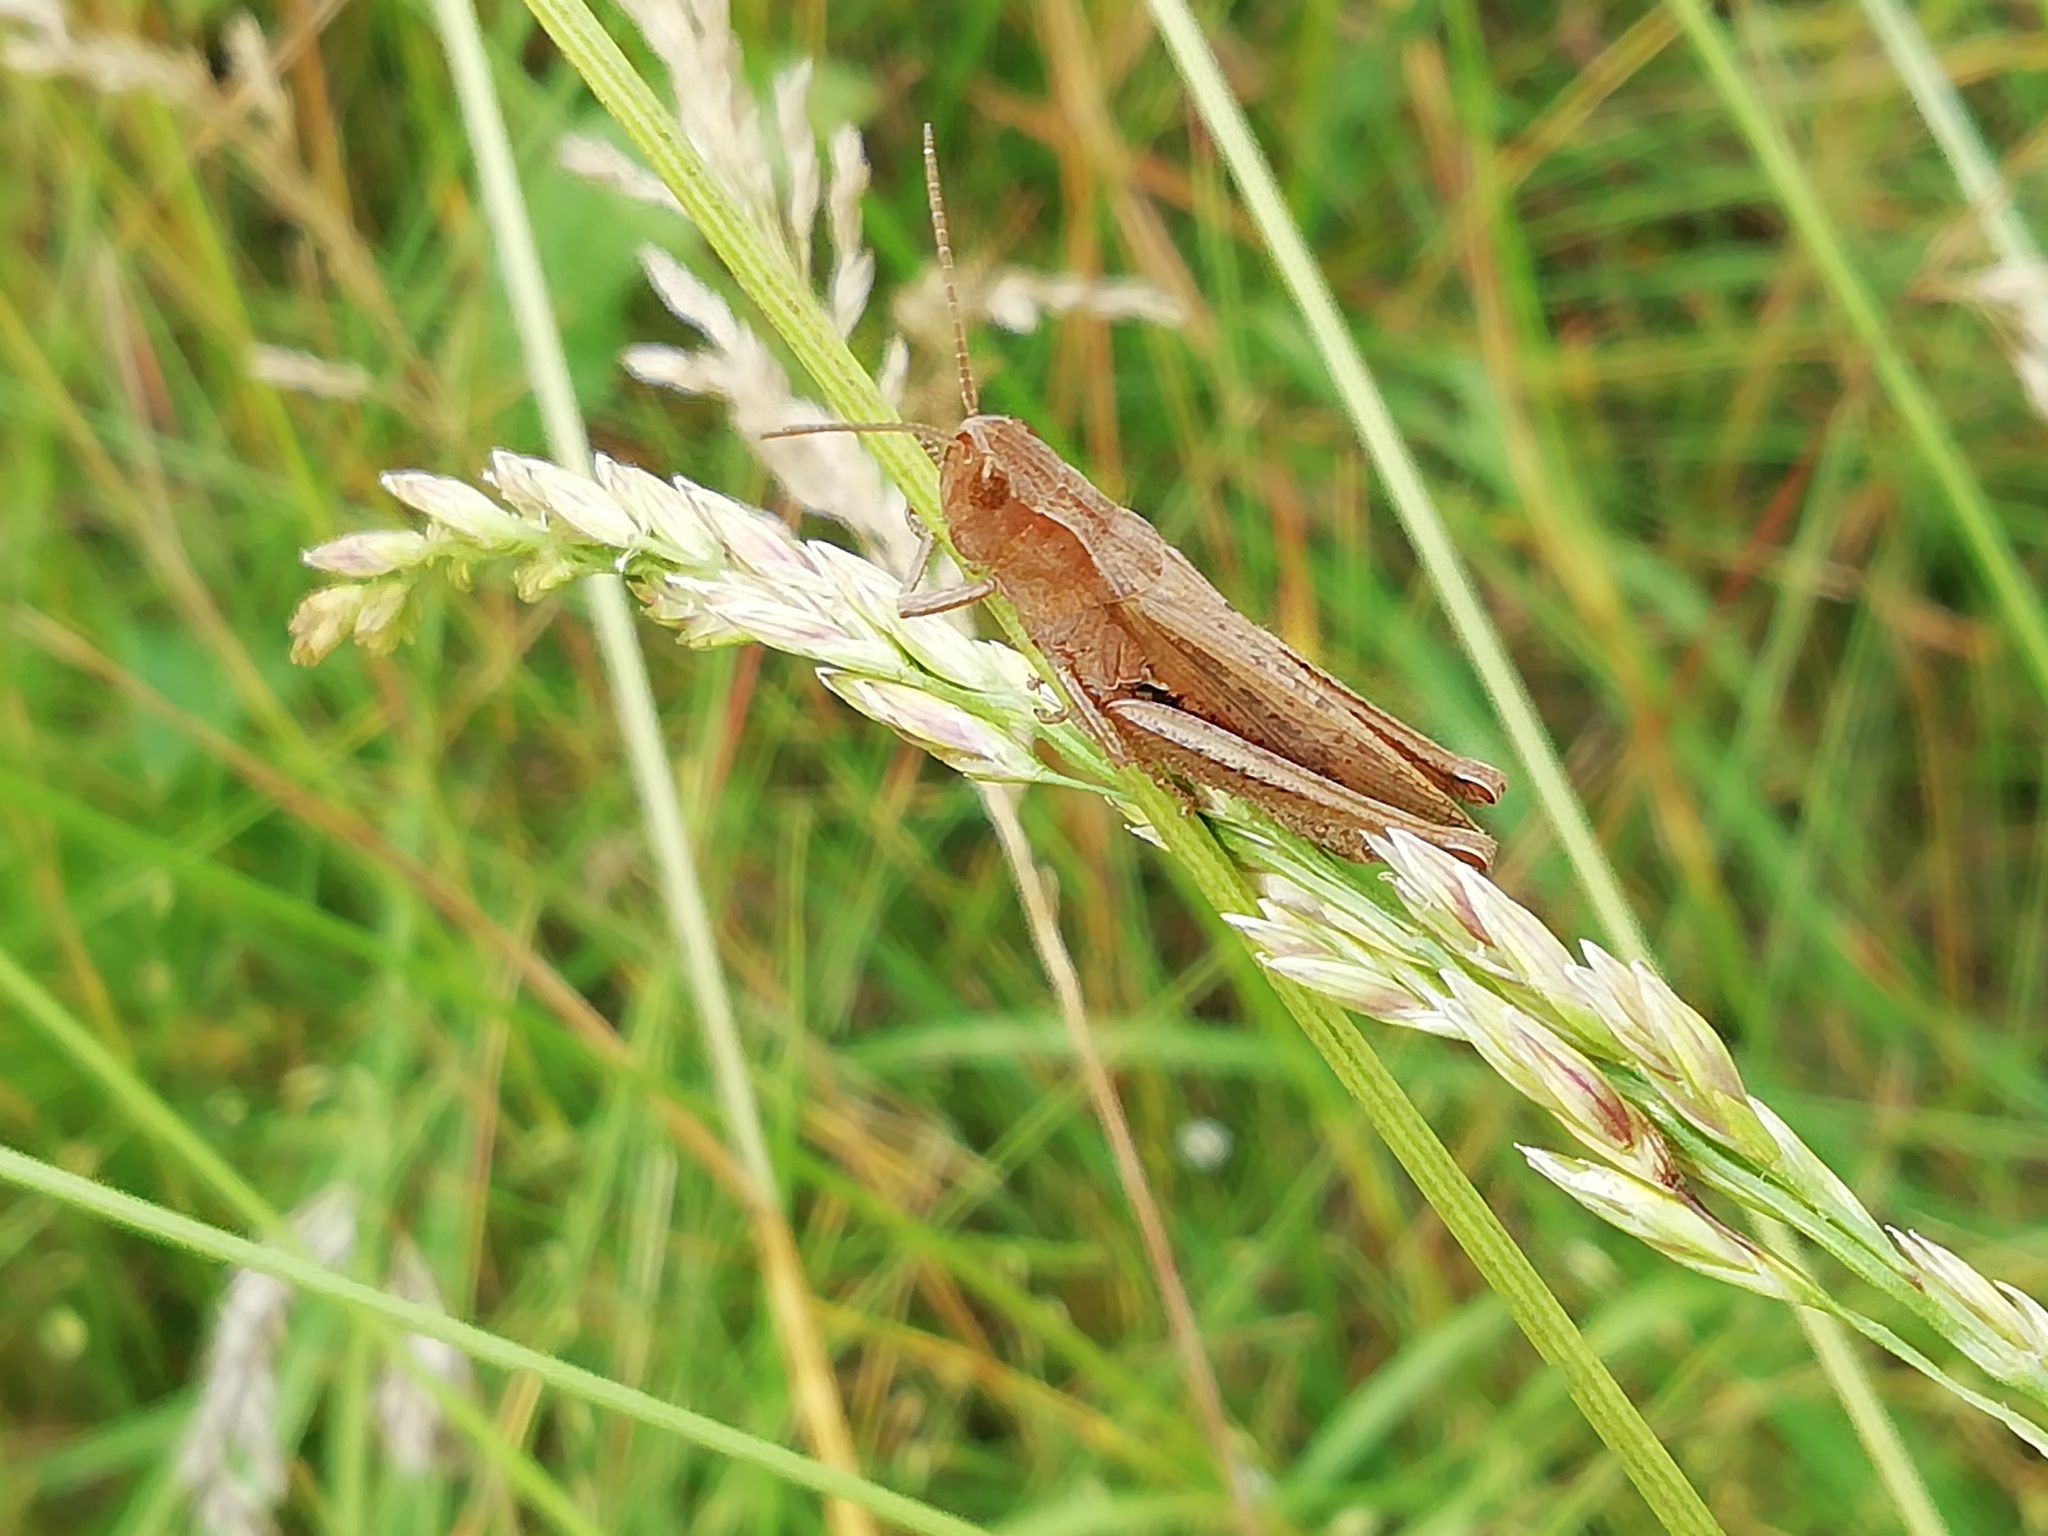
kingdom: Animalia
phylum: Arthropoda
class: Insecta
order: Orthoptera
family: Acrididae
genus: Chorthippus
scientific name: Chorthippus dorsatus
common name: Steppe grasshopper
